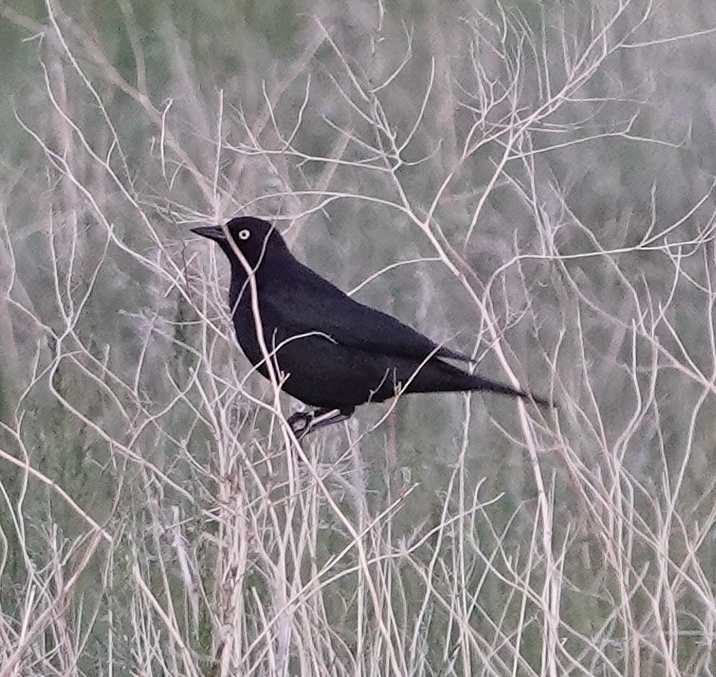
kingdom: Animalia
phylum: Chordata
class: Aves
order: Passeriformes
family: Icteridae
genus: Euphagus
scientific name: Euphagus cyanocephalus
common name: Brewer's blackbird
